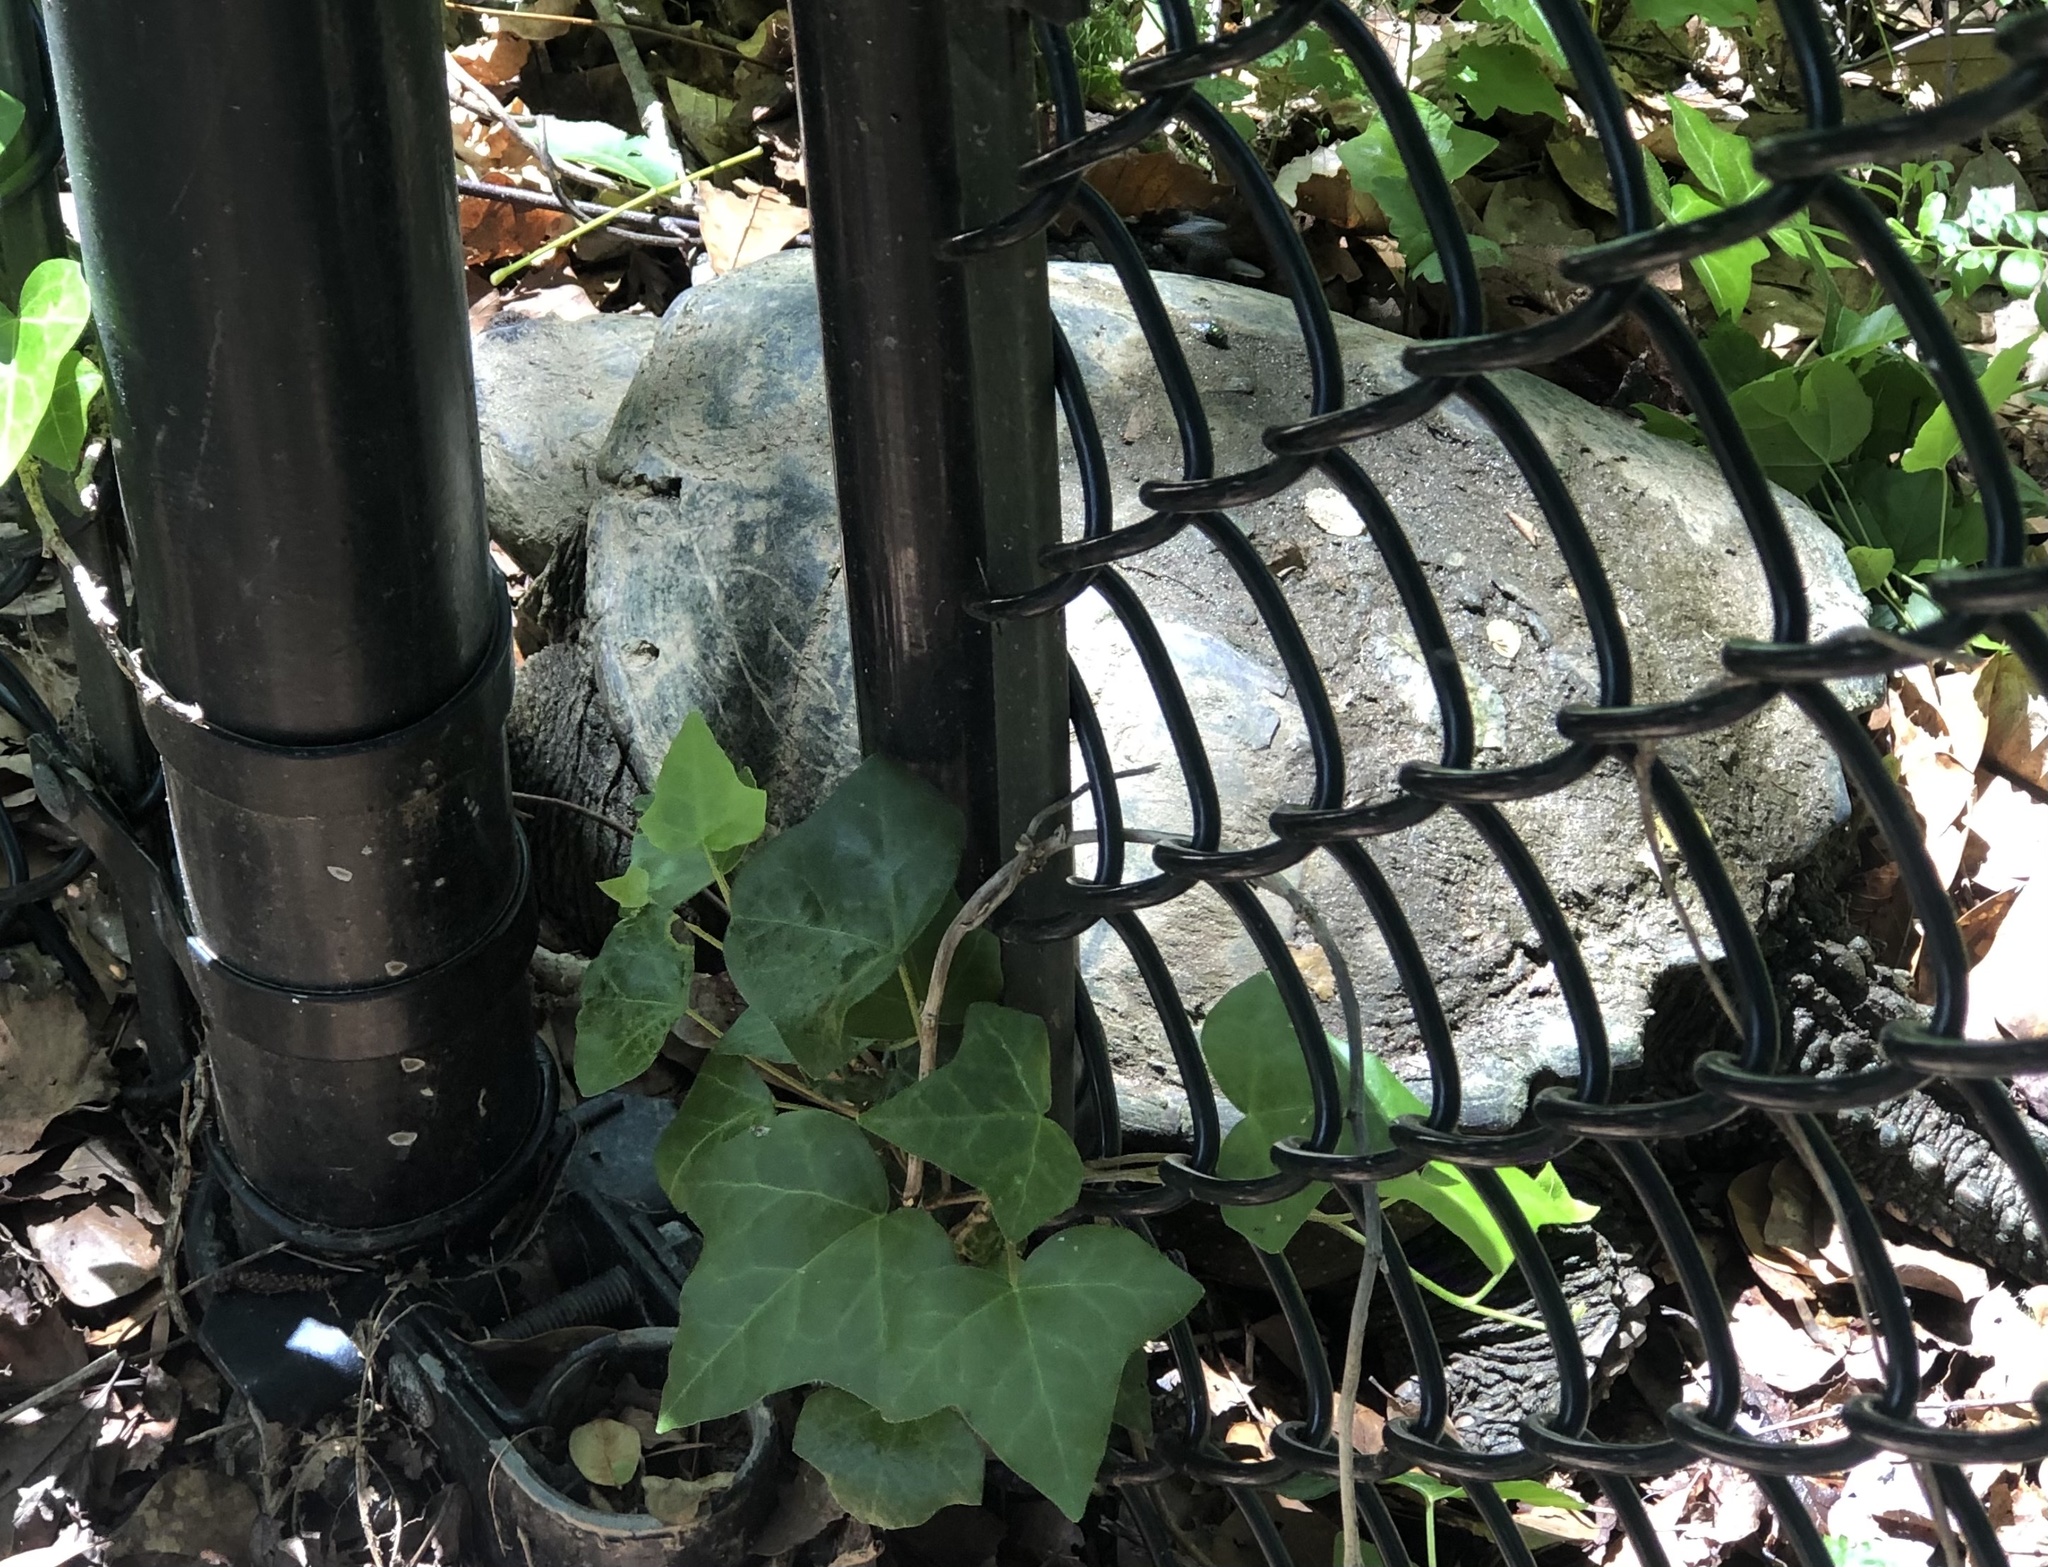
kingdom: Animalia
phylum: Chordata
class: Testudines
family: Chelydridae
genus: Chelydra
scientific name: Chelydra serpentina
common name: Common snapping turtle
